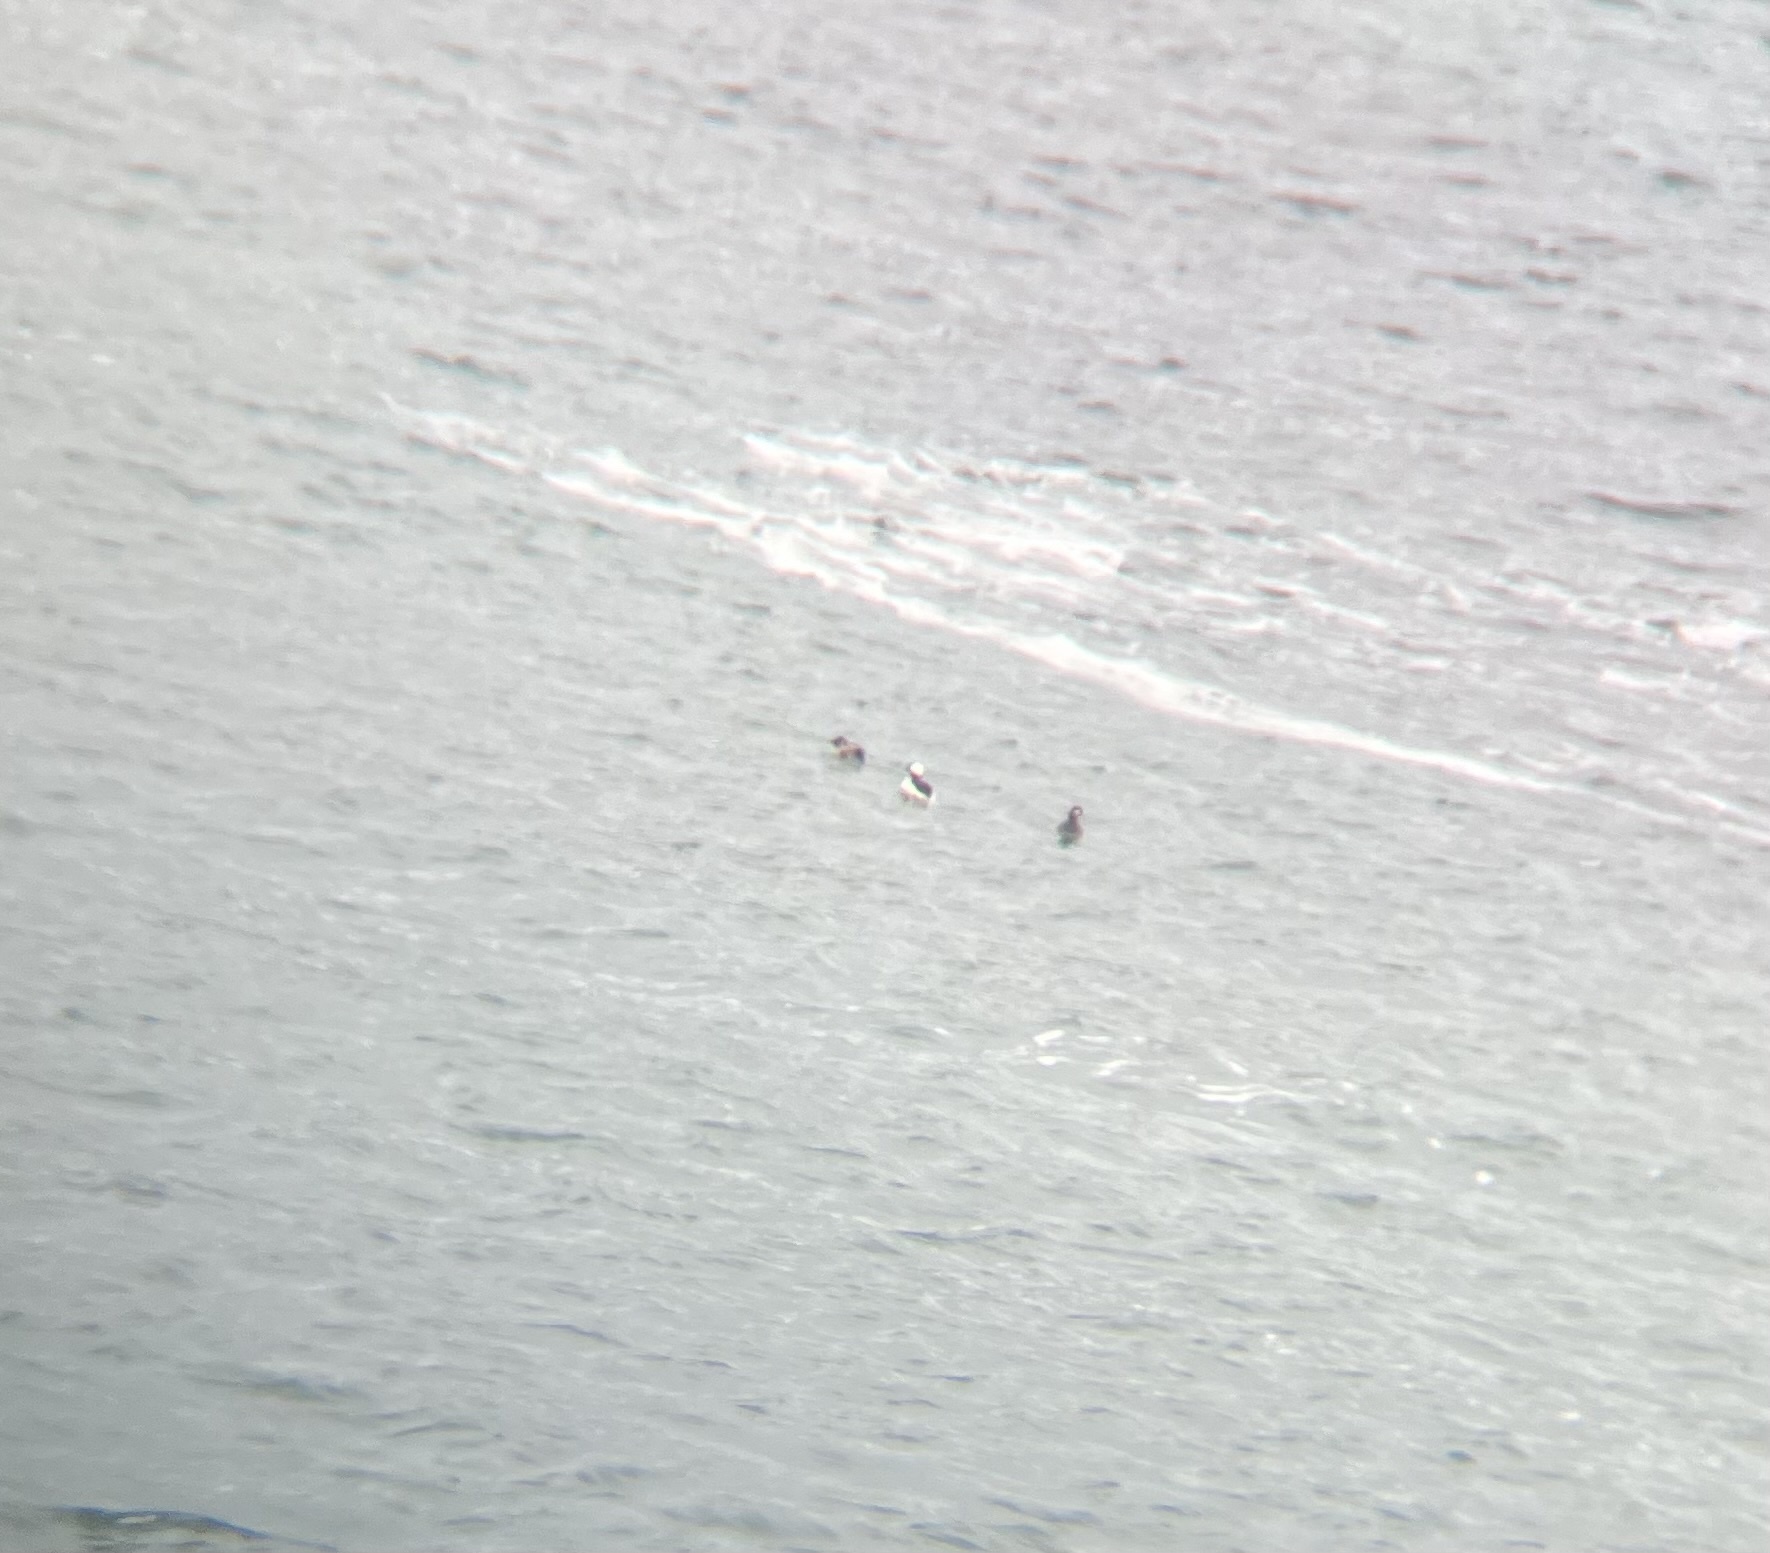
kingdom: Animalia
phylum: Chordata
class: Aves
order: Anseriformes
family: Anatidae
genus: Bucephala
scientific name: Bucephala albeola
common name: Bufflehead
